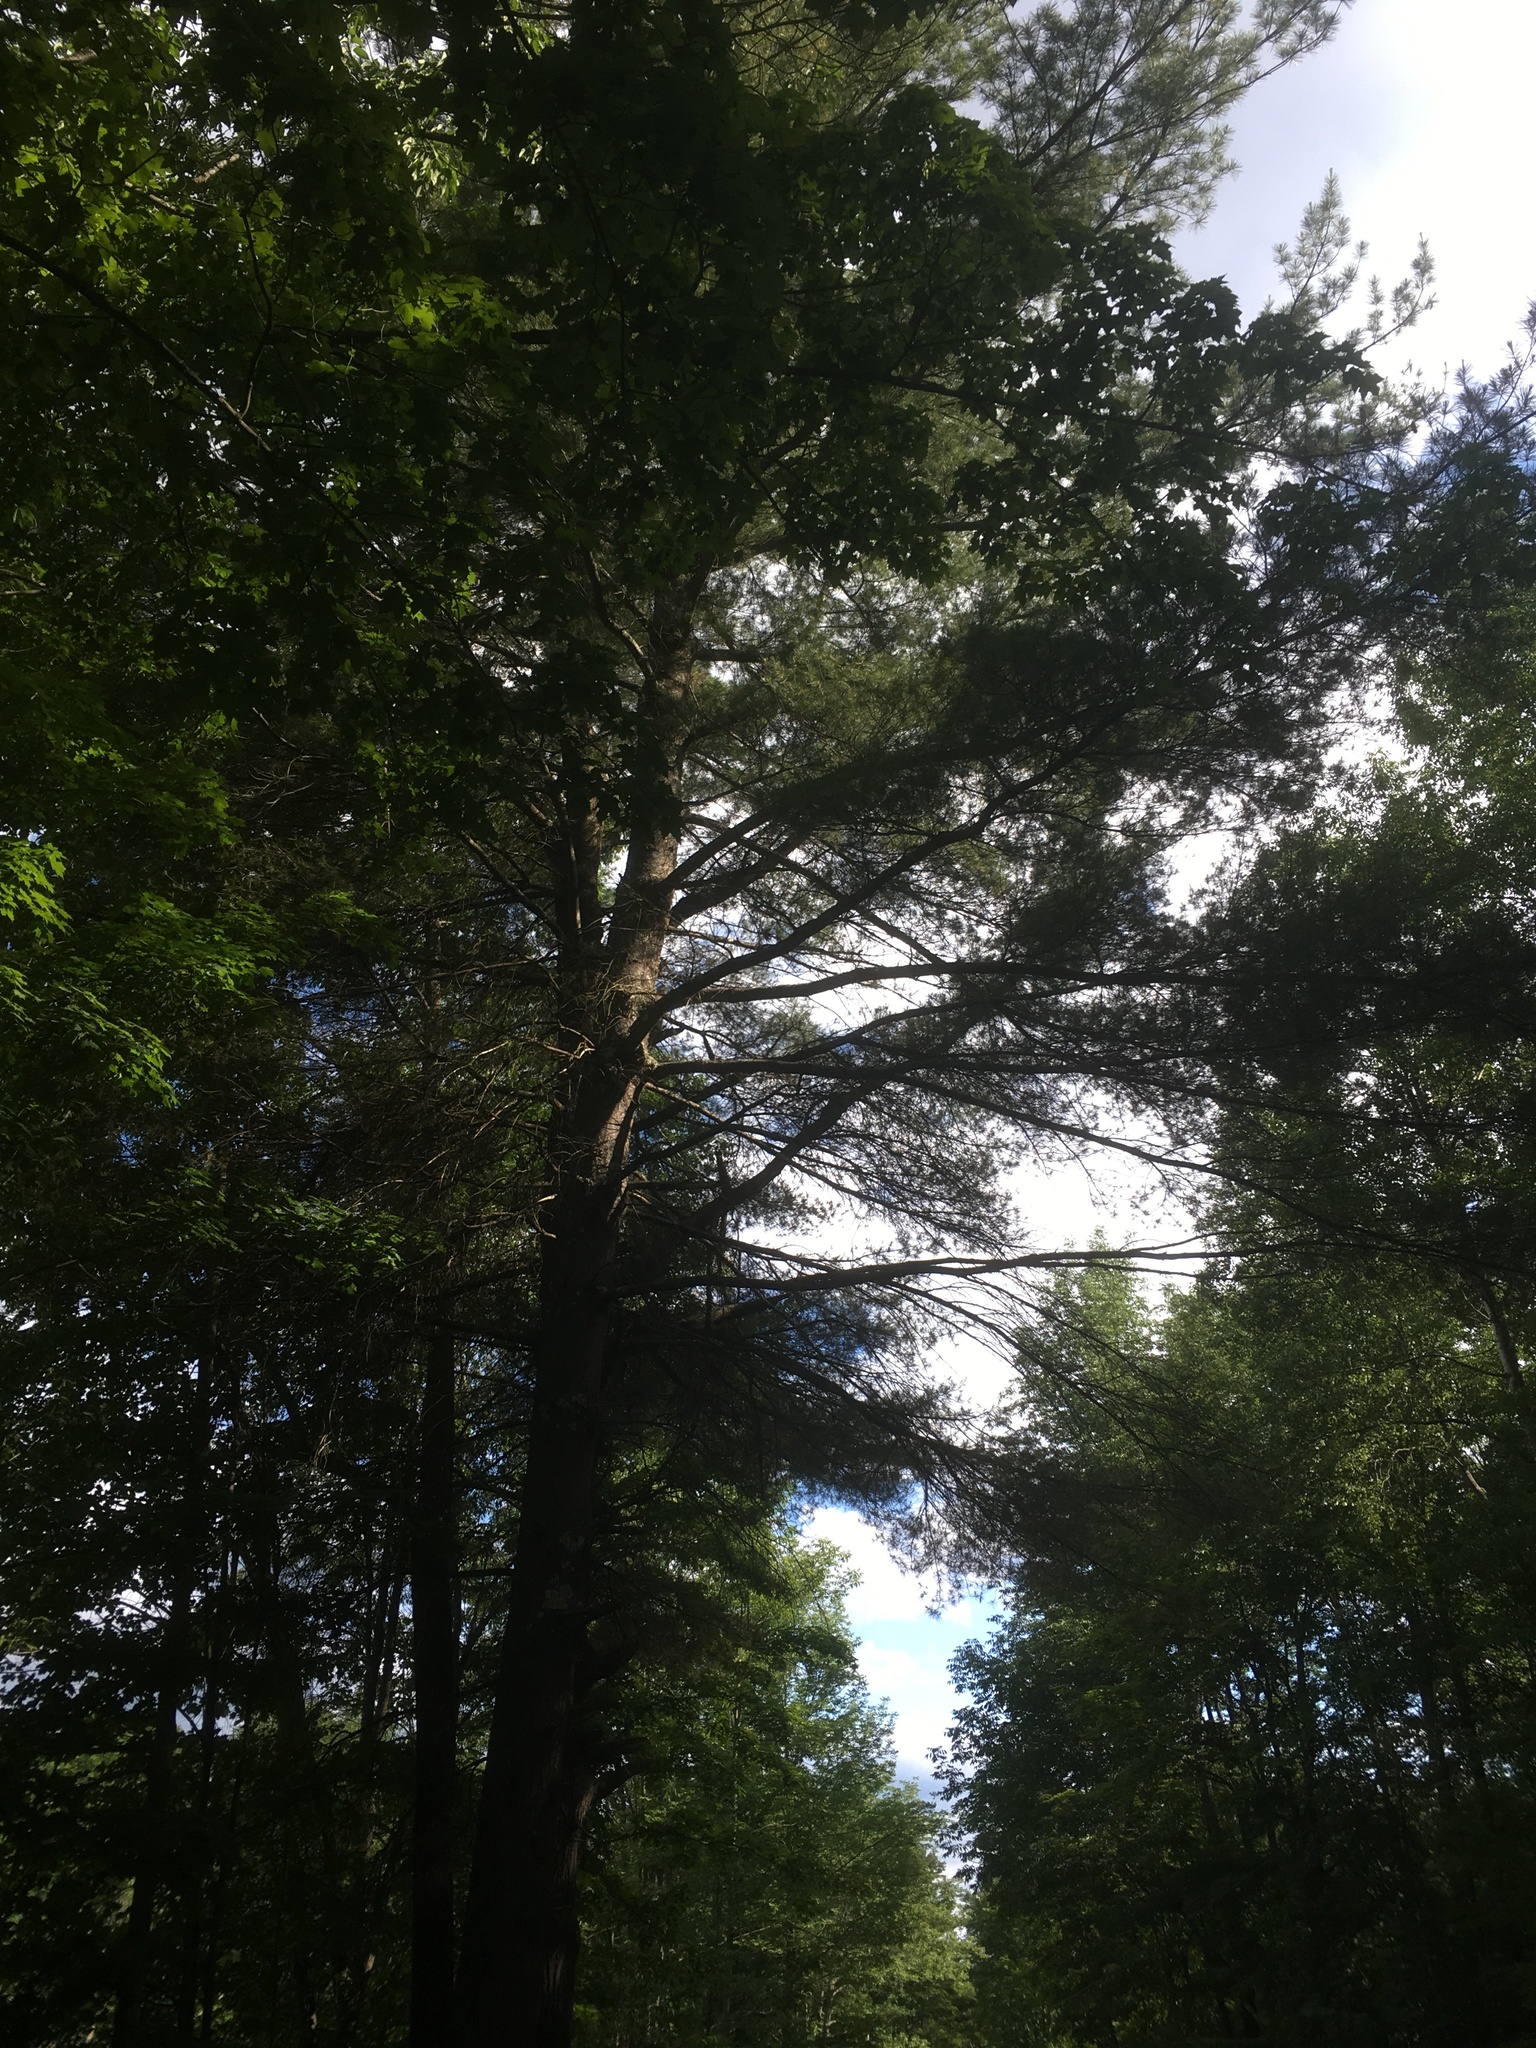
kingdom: Plantae
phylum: Tracheophyta
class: Pinopsida
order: Pinales
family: Pinaceae
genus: Pinus
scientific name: Pinus strobus
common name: Weymouth pine
